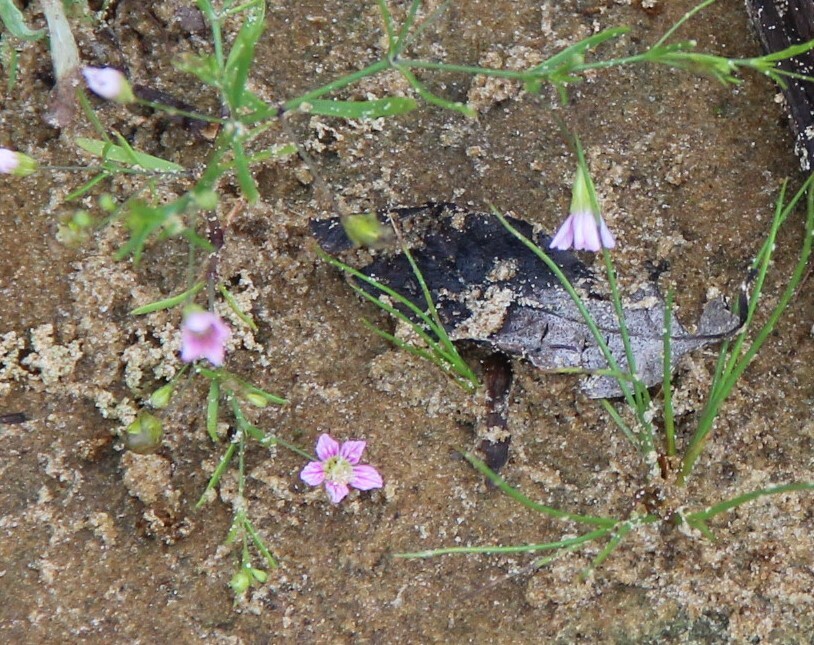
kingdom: Plantae
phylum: Tracheophyta
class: Magnoliopsida
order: Caryophyllales
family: Caryophyllaceae
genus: Psammophiliella
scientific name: Psammophiliella muralis
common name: Cushion baby's-breath
